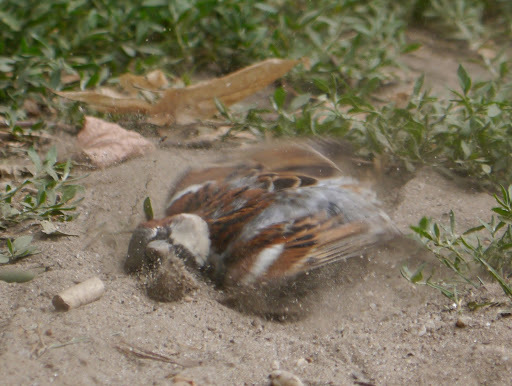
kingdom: Animalia
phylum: Chordata
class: Aves
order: Passeriformes
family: Passeridae
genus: Passer
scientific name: Passer domesticus
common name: House sparrow
